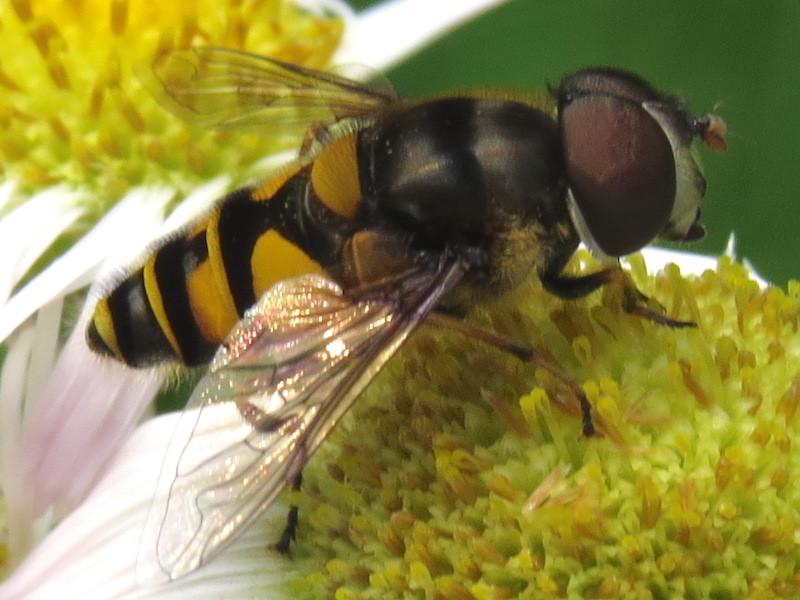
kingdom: Animalia
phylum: Arthropoda
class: Insecta
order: Diptera
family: Syrphidae
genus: Eristalis
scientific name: Eristalis transversa
